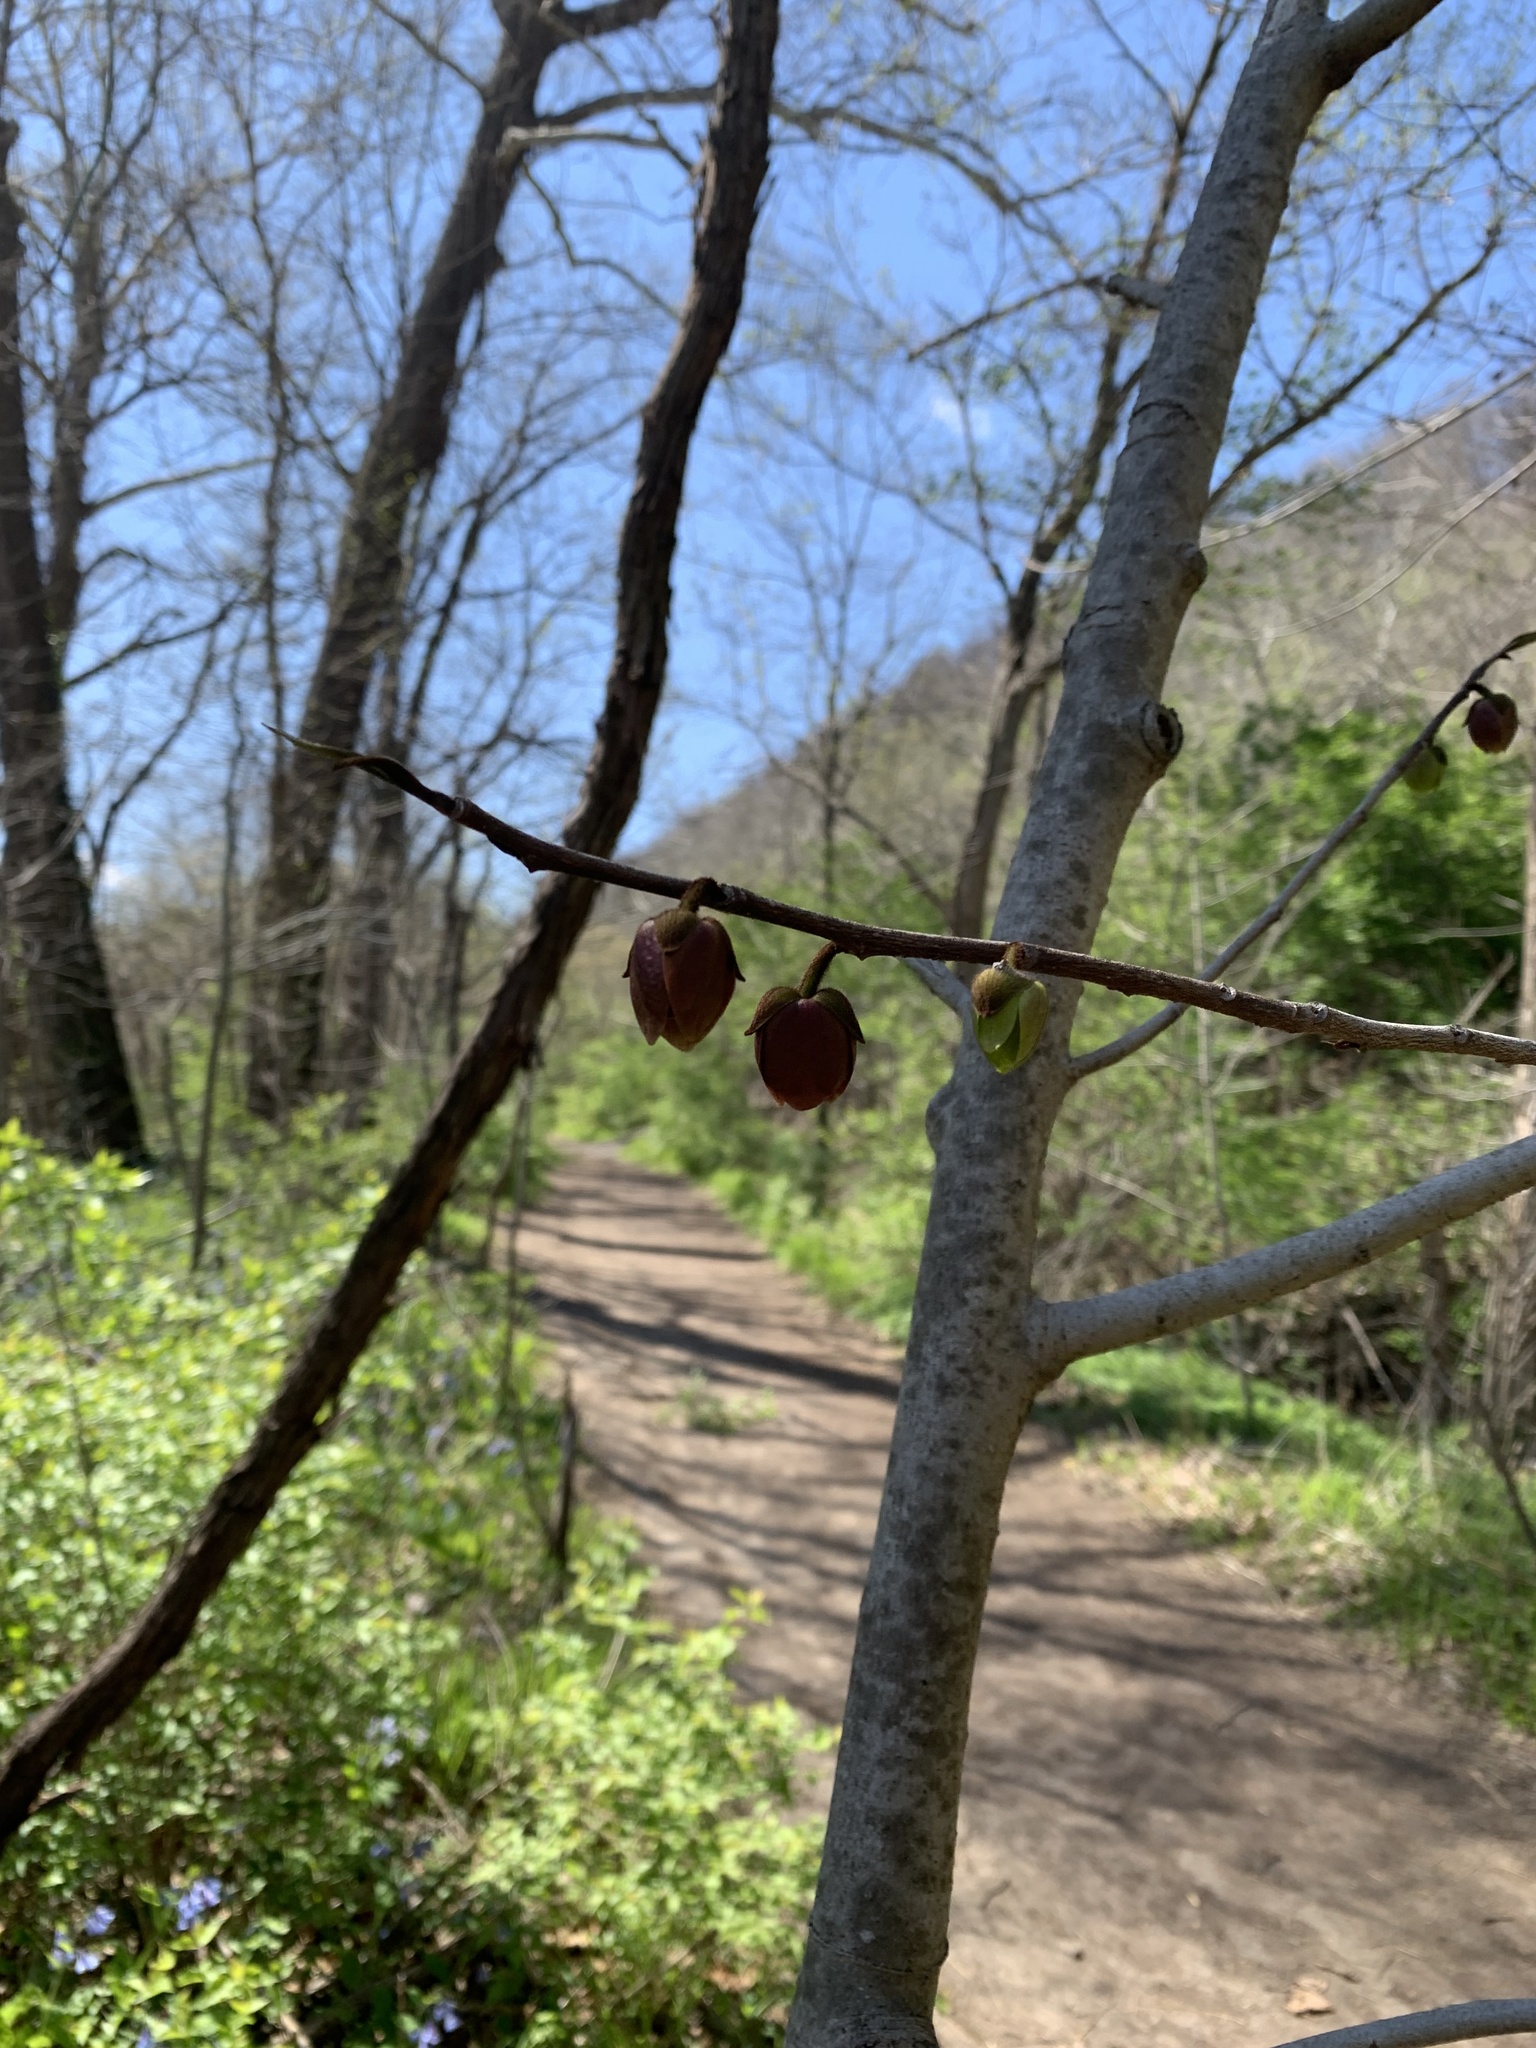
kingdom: Plantae
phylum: Tracheophyta
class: Magnoliopsida
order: Magnoliales
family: Annonaceae
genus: Asimina
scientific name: Asimina triloba
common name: Dog-banana
